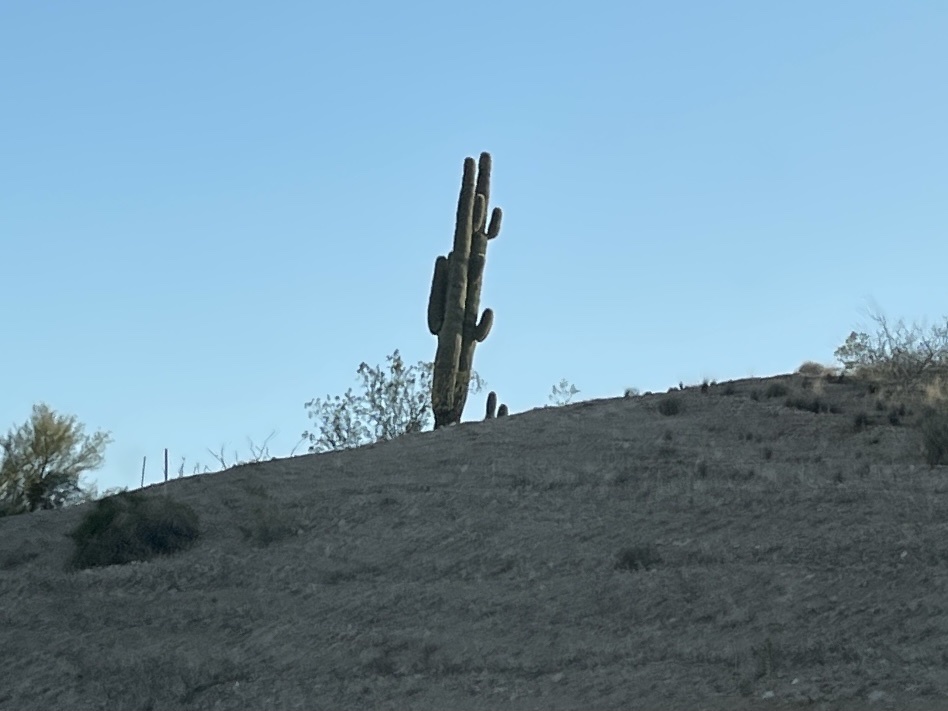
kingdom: Plantae
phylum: Tracheophyta
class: Magnoliopsida
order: Caryophyllales
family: Cactaceae
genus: Carnegiea
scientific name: Carnegiea gigantea
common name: Saguaro
